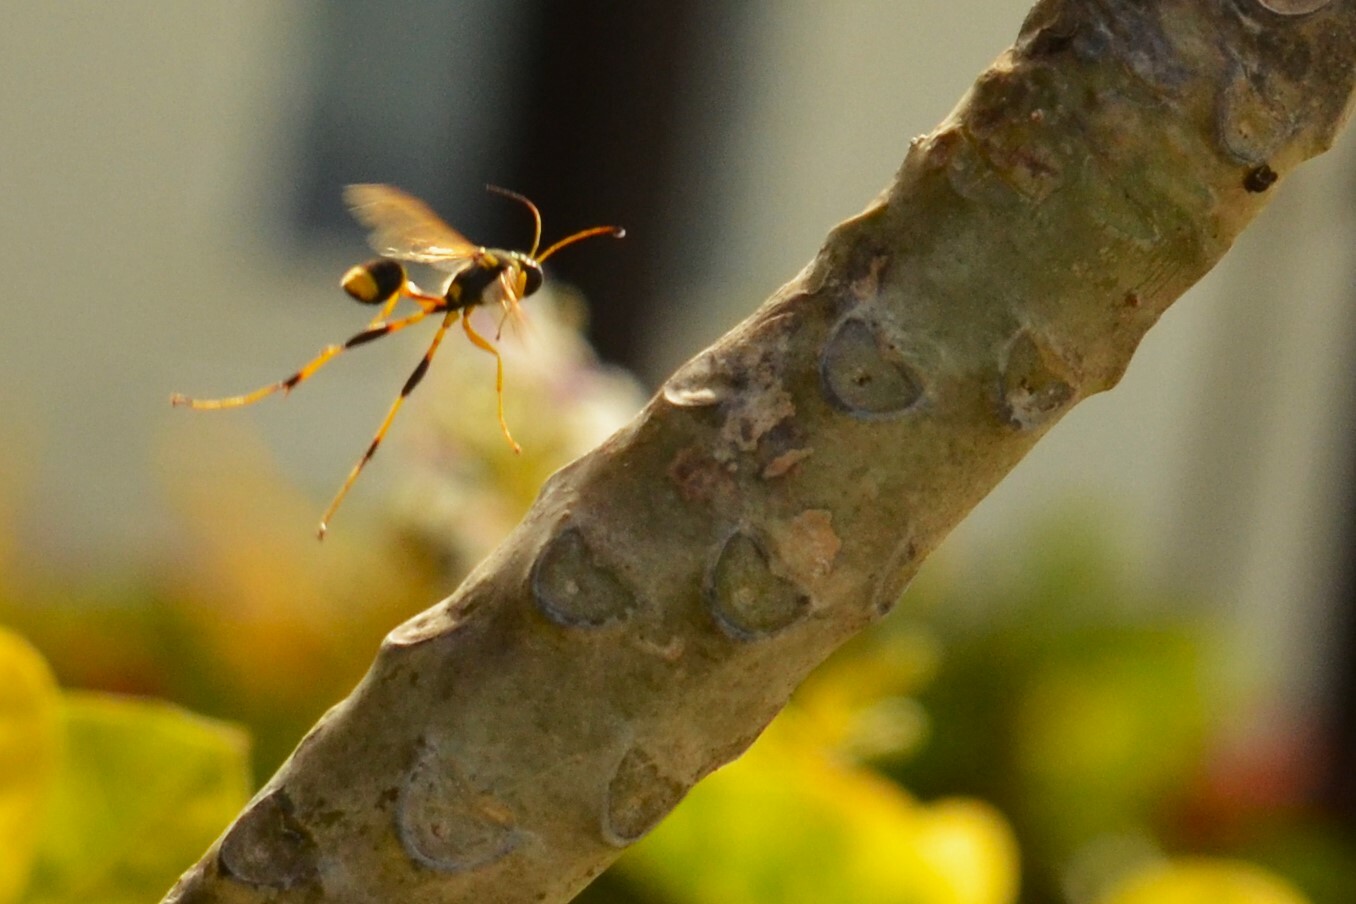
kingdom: Animalia
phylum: Arthropoda
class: Insecta
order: Hymenoptera
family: Sphecidae
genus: Sceliphron
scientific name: Sceliphron laetum
